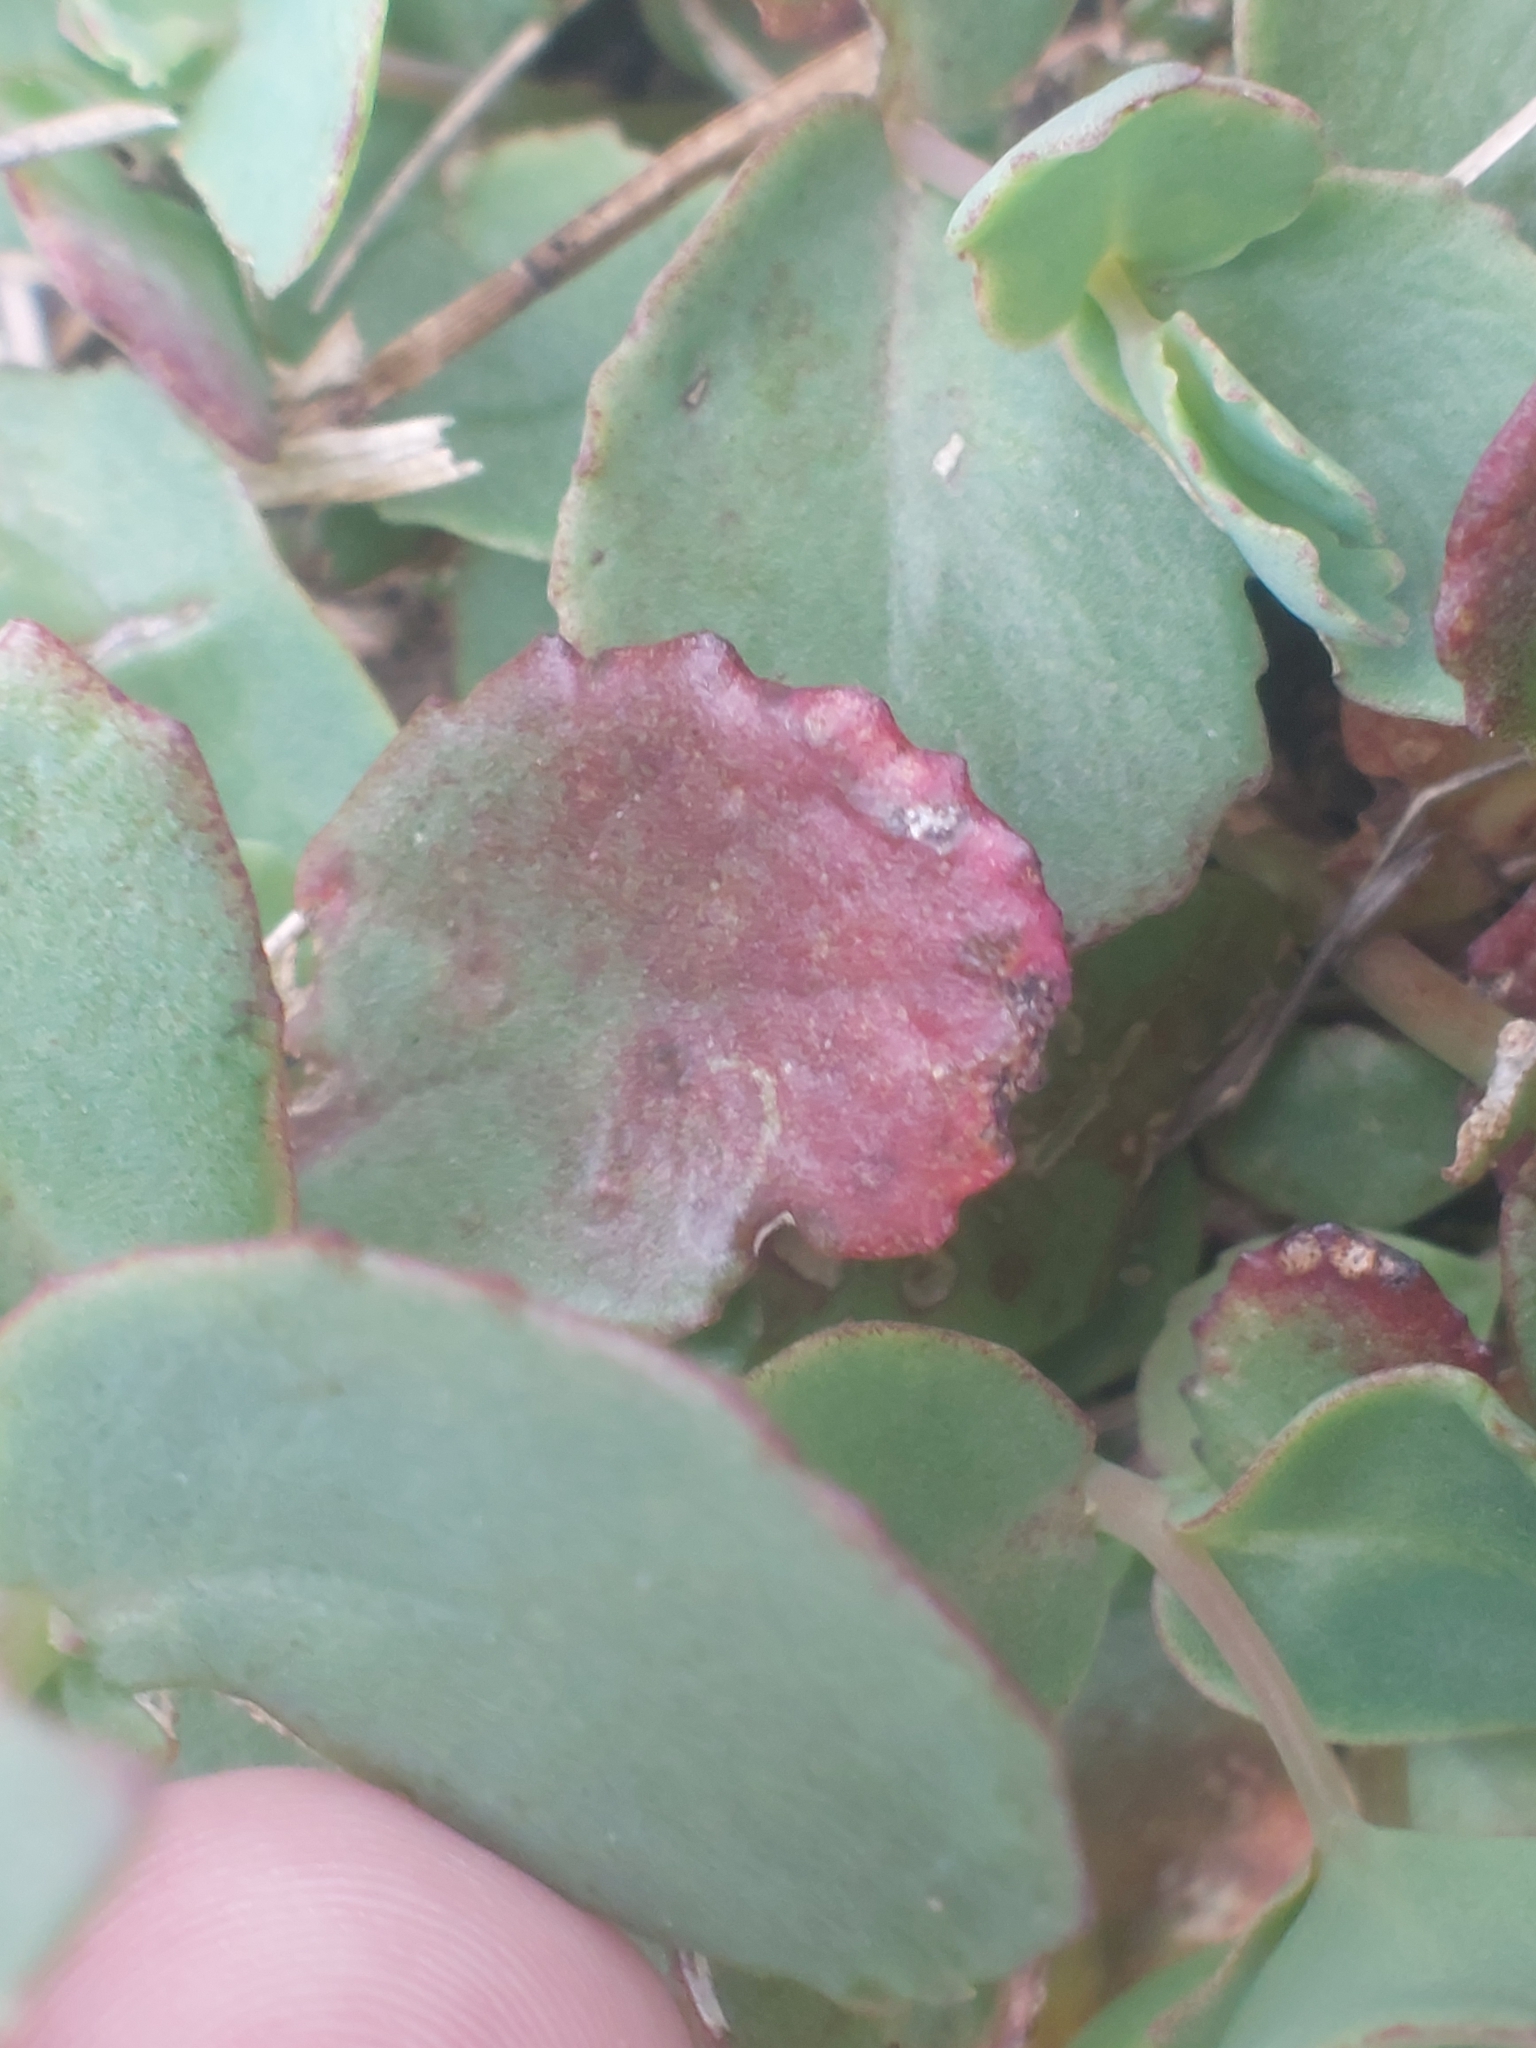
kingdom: Plantae
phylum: Tracheophyta
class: Magnoliopsida
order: Saxifragales
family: Crassulaceae
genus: Hylotelephium
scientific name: Hylotelephium maximum
